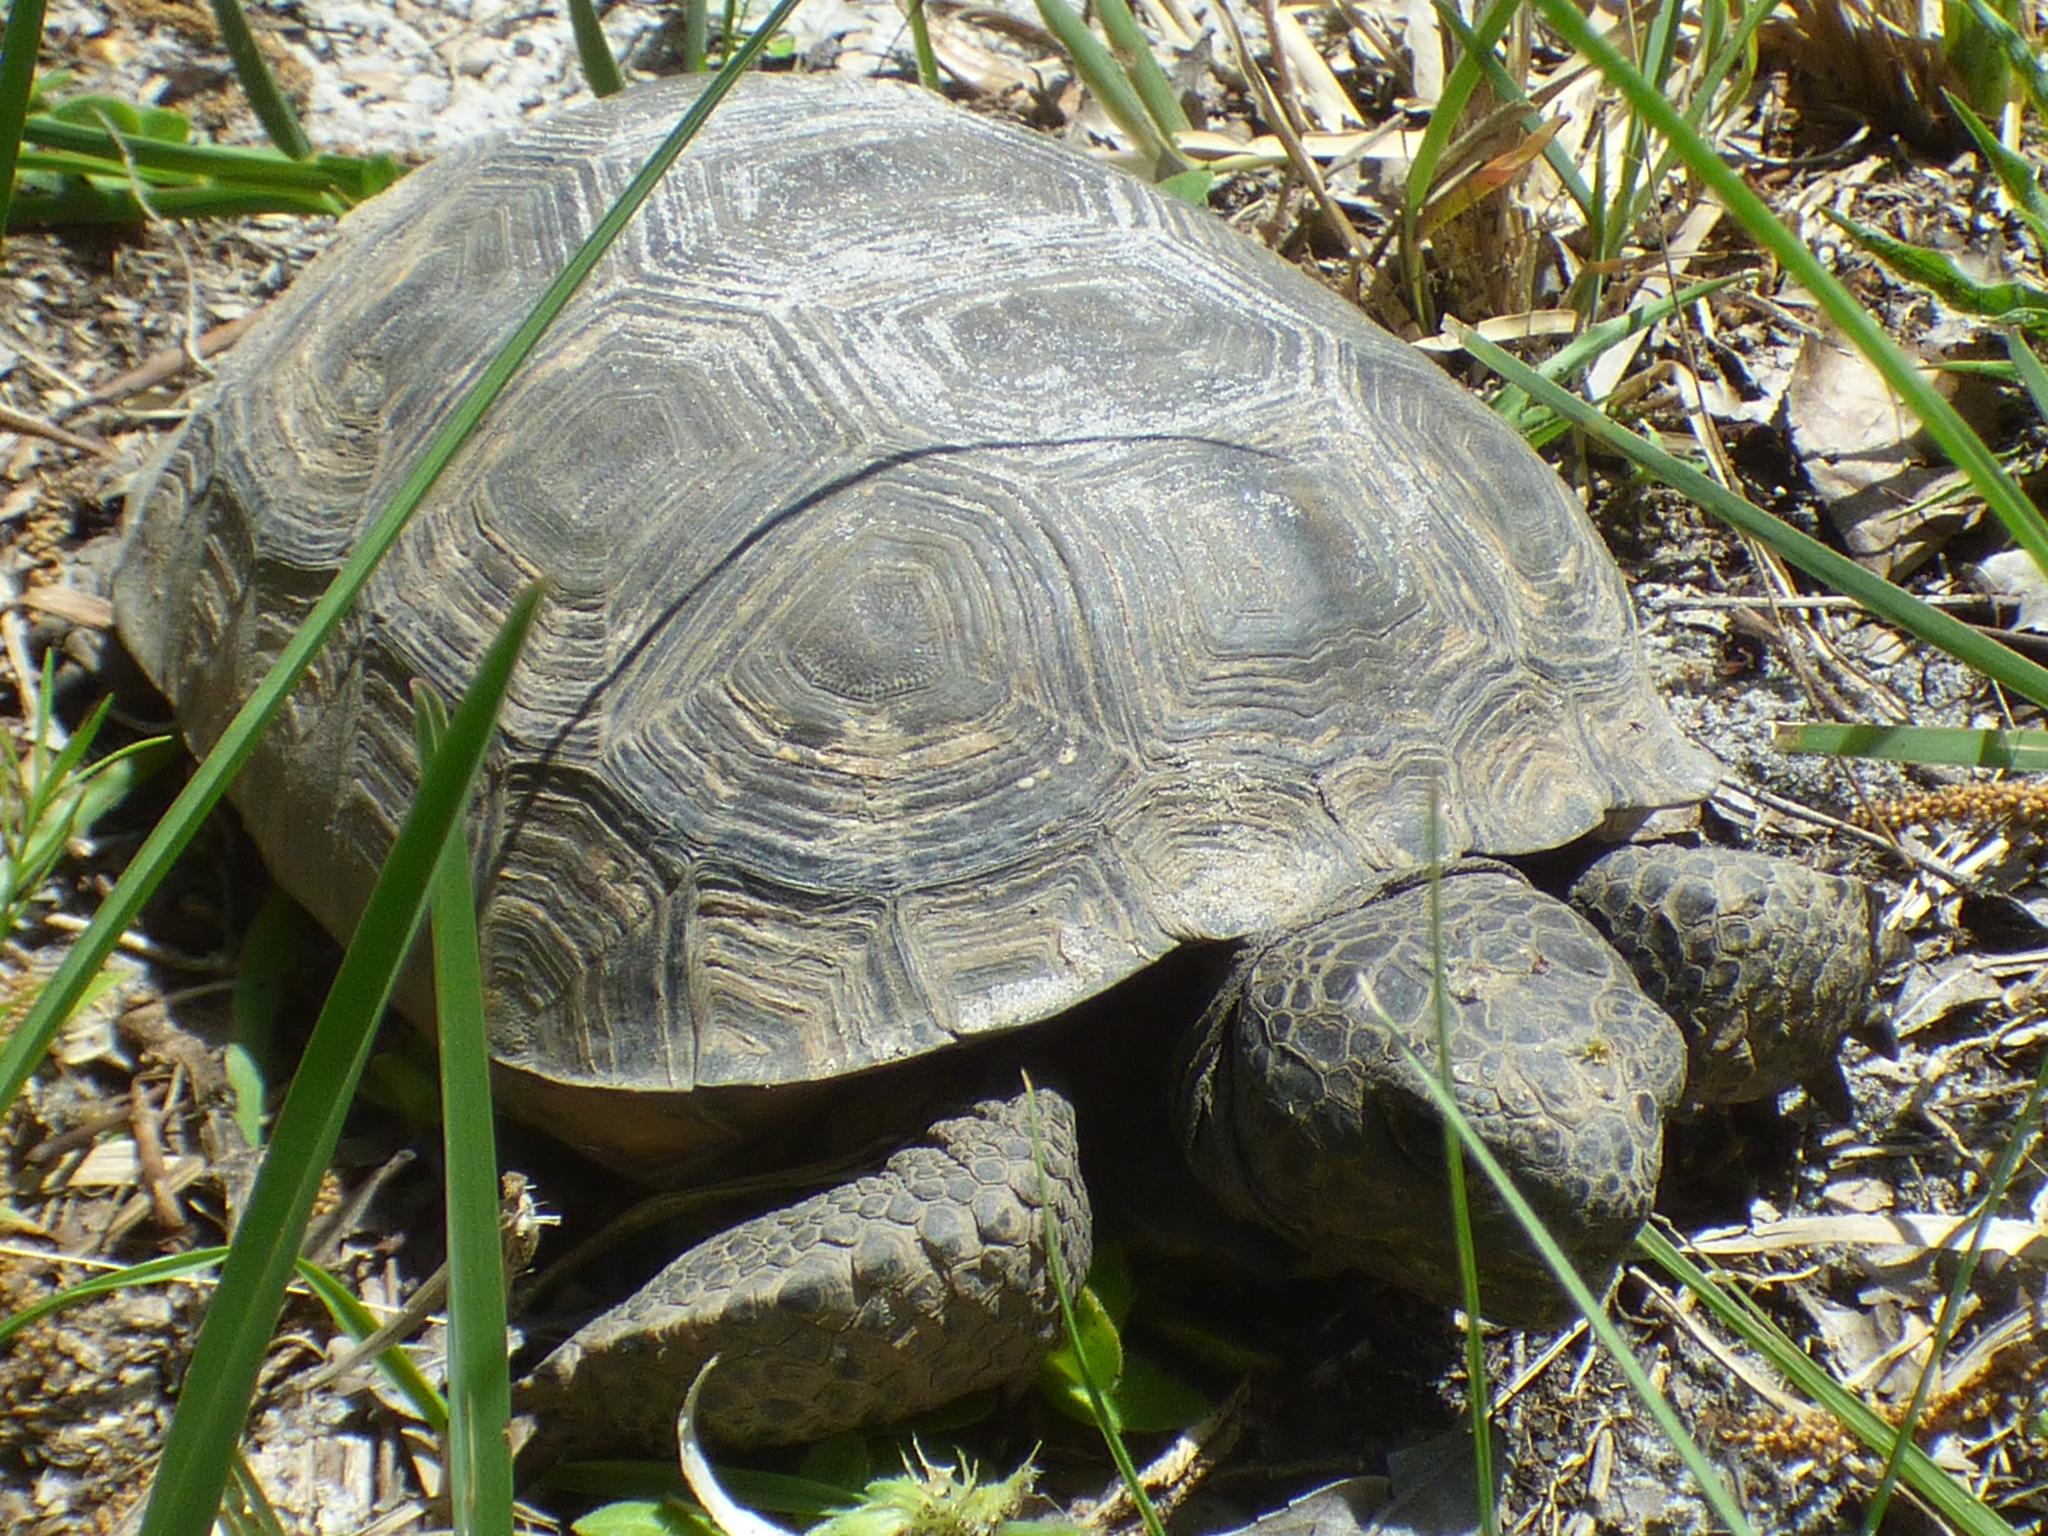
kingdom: Animalia
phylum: Chordata
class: Testudines
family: Testudinidae
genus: Gopherus
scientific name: Gopherus polyphemus
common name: Florida gopher tortoise
